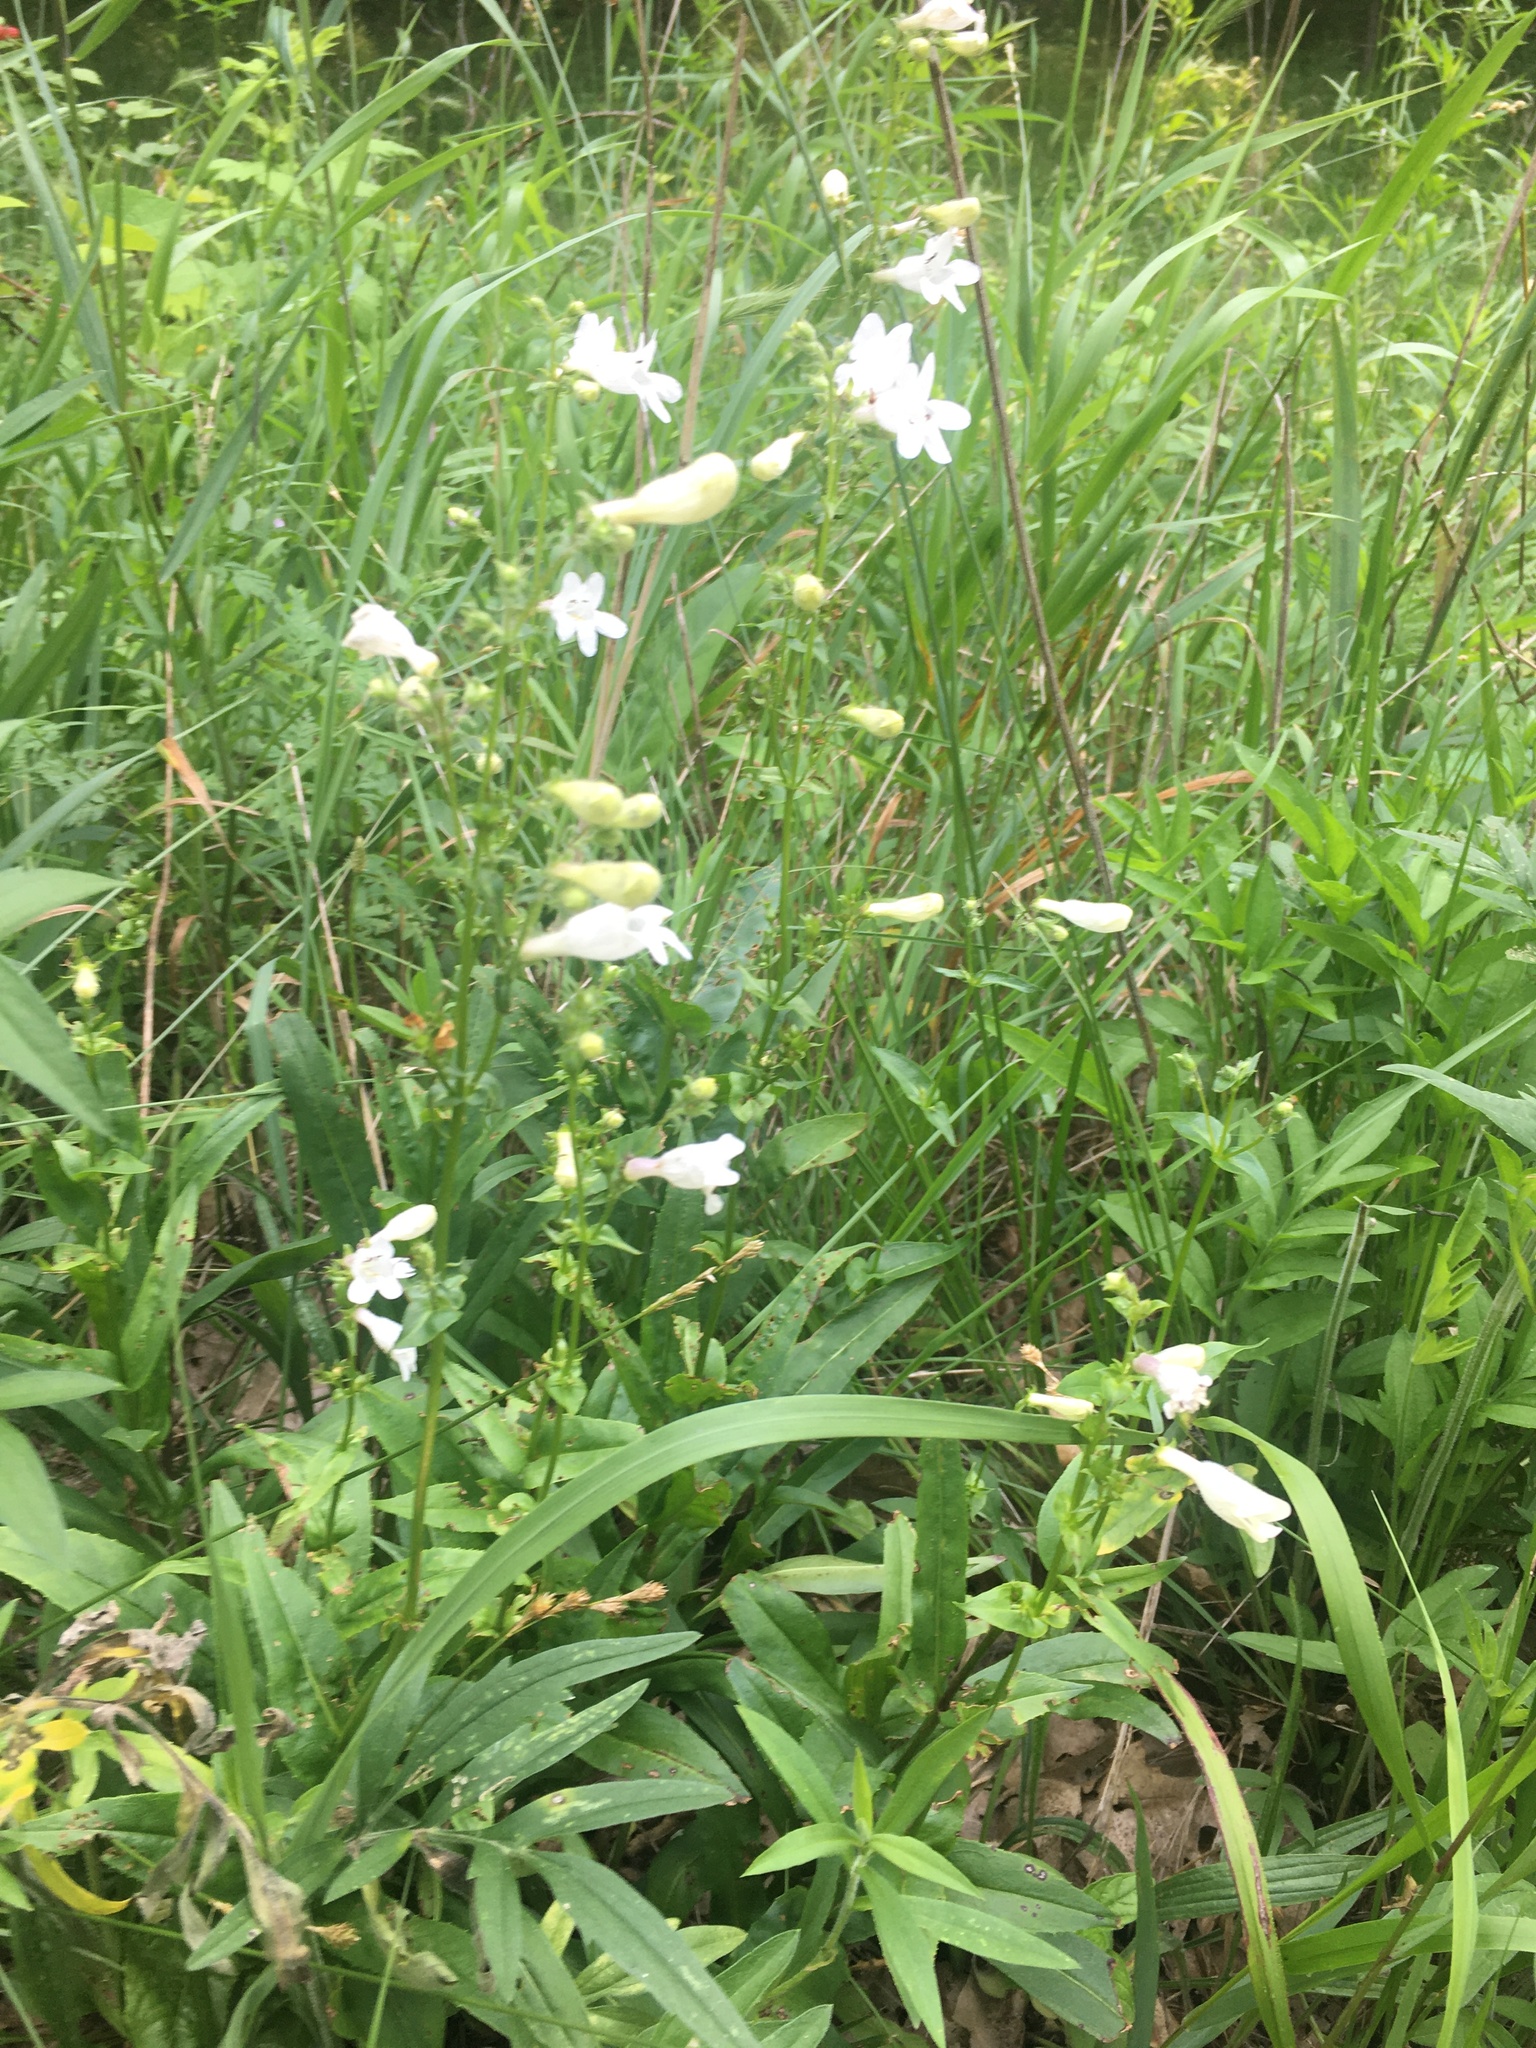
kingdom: Plantae
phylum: Tracheophyta
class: Magnoliopsida
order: Lamiales
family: Plantaginaceae
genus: Penstemon
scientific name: Penstemon digitalis
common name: Foxglove beardtongue
